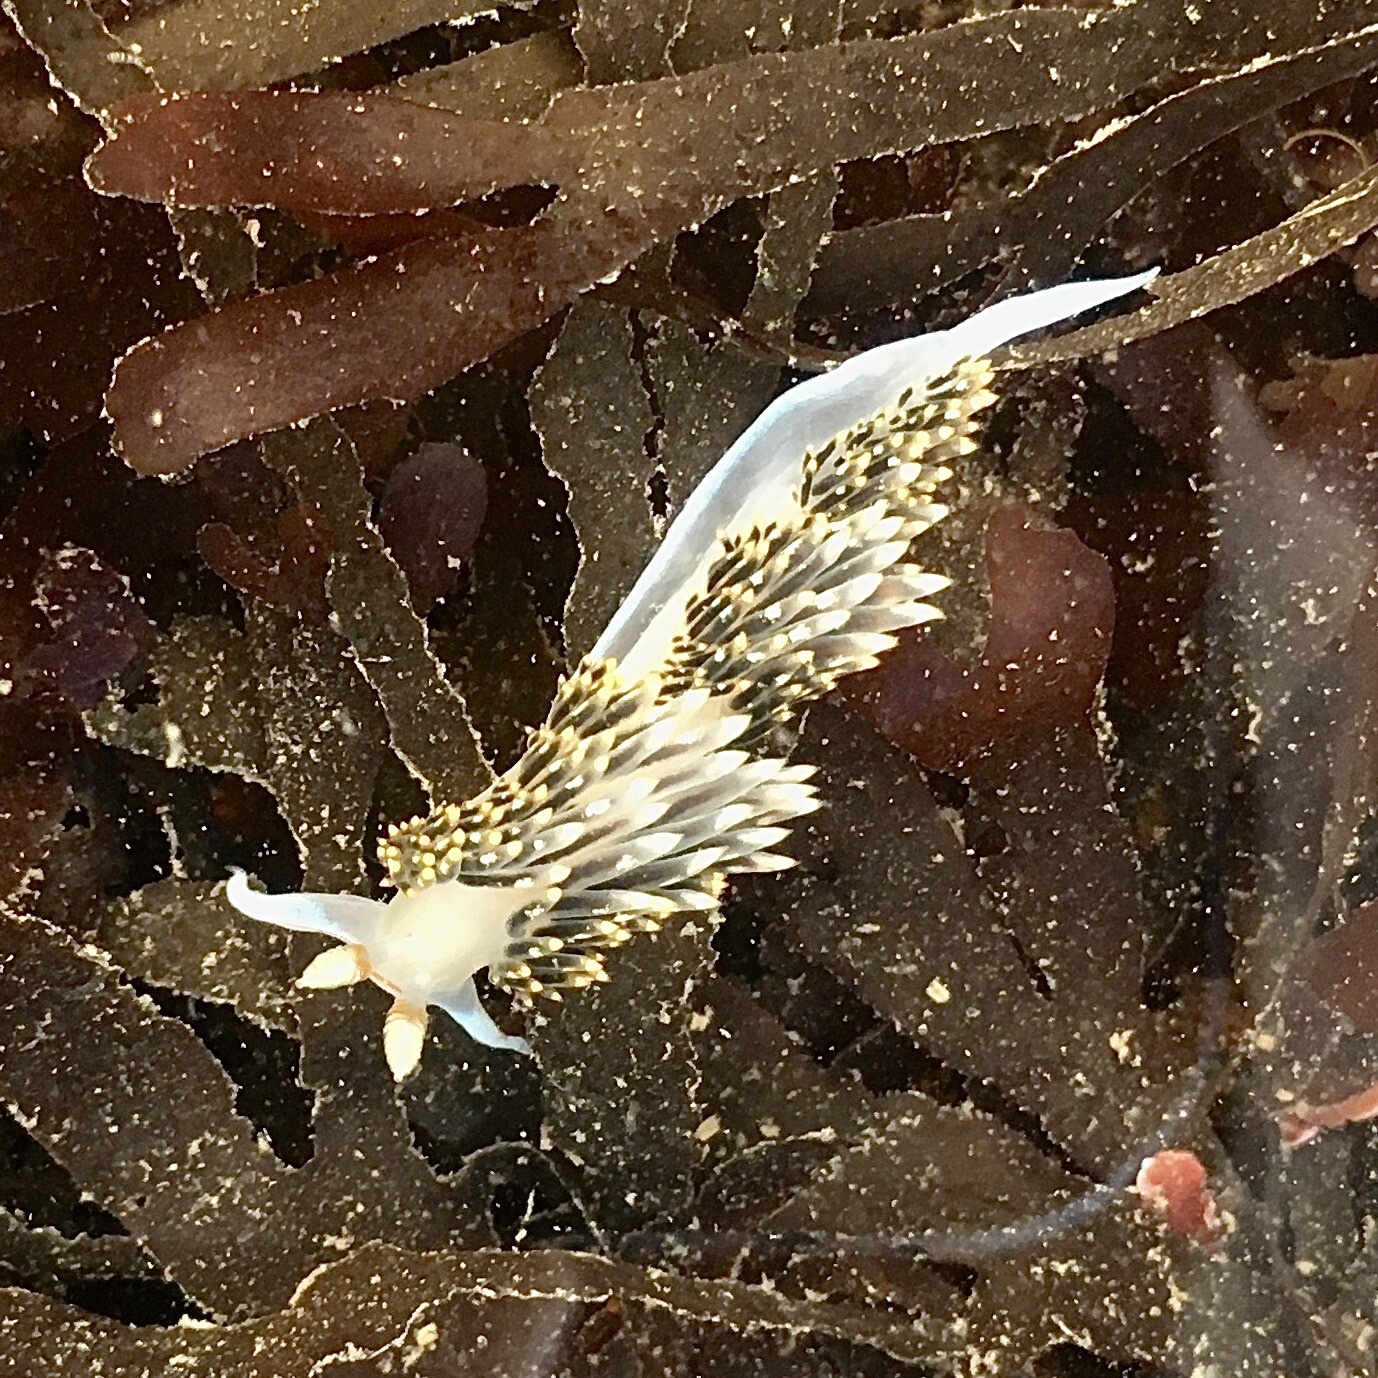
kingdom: Animalia
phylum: Mollusca
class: Gastropoda
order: Nudibranchia
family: Facelinidae
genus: Phidiana
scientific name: Phidiana hiltoni
